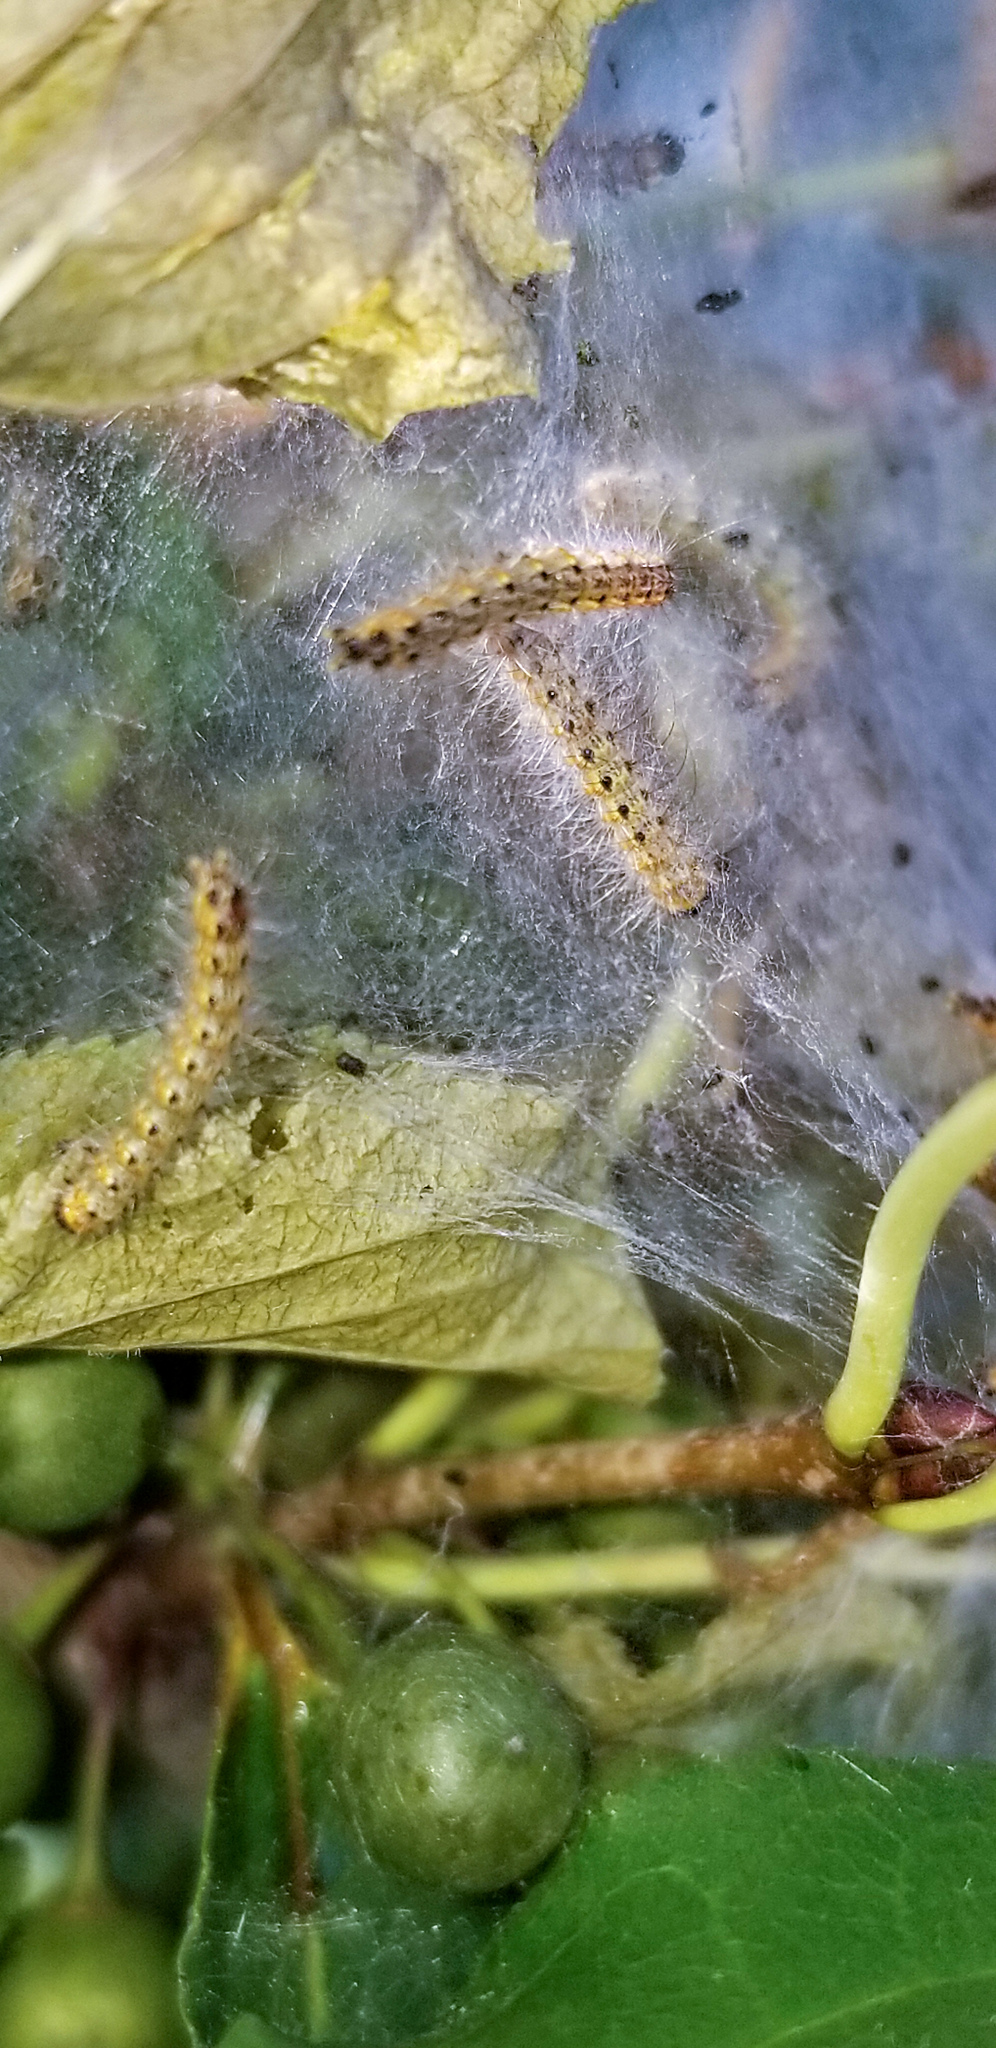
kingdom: Animalia
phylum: Arthropoda
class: Insecta
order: Lepidoptera
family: Erebidae
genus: Hyphantria
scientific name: Hyphantria cunea
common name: American white moth
